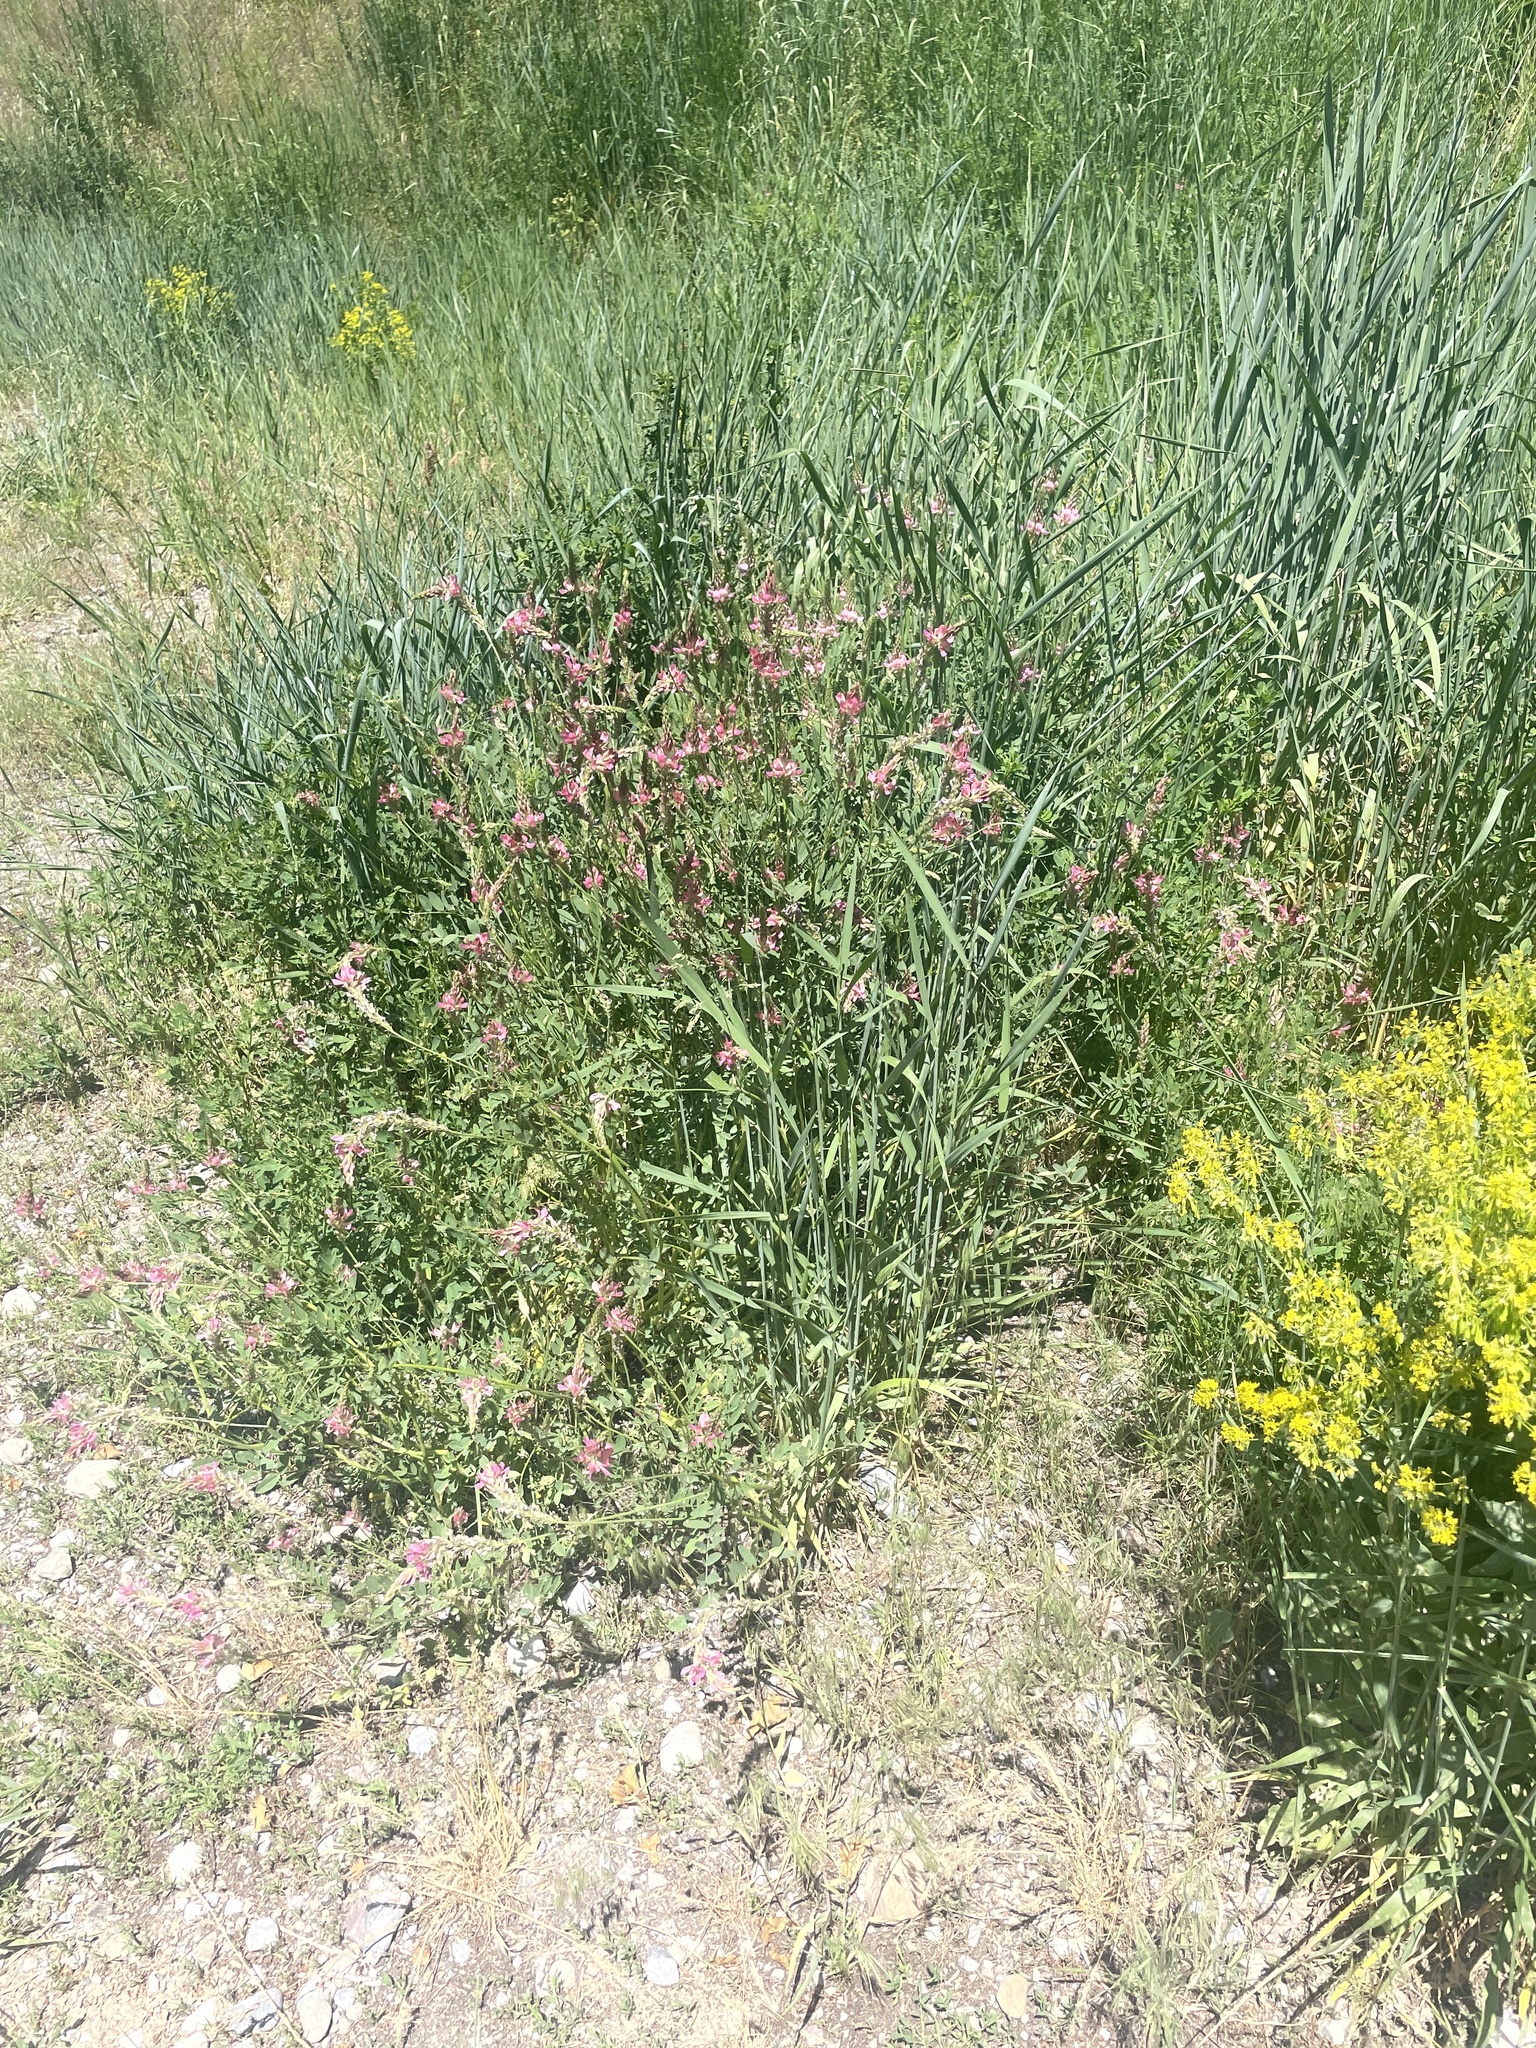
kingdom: Plantae
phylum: Tracheophyta
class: Magnoliopsida
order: Fabales
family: Fabaceae
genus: Onobrychis
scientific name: Onobrychis viciifolia
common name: Sainfoin
